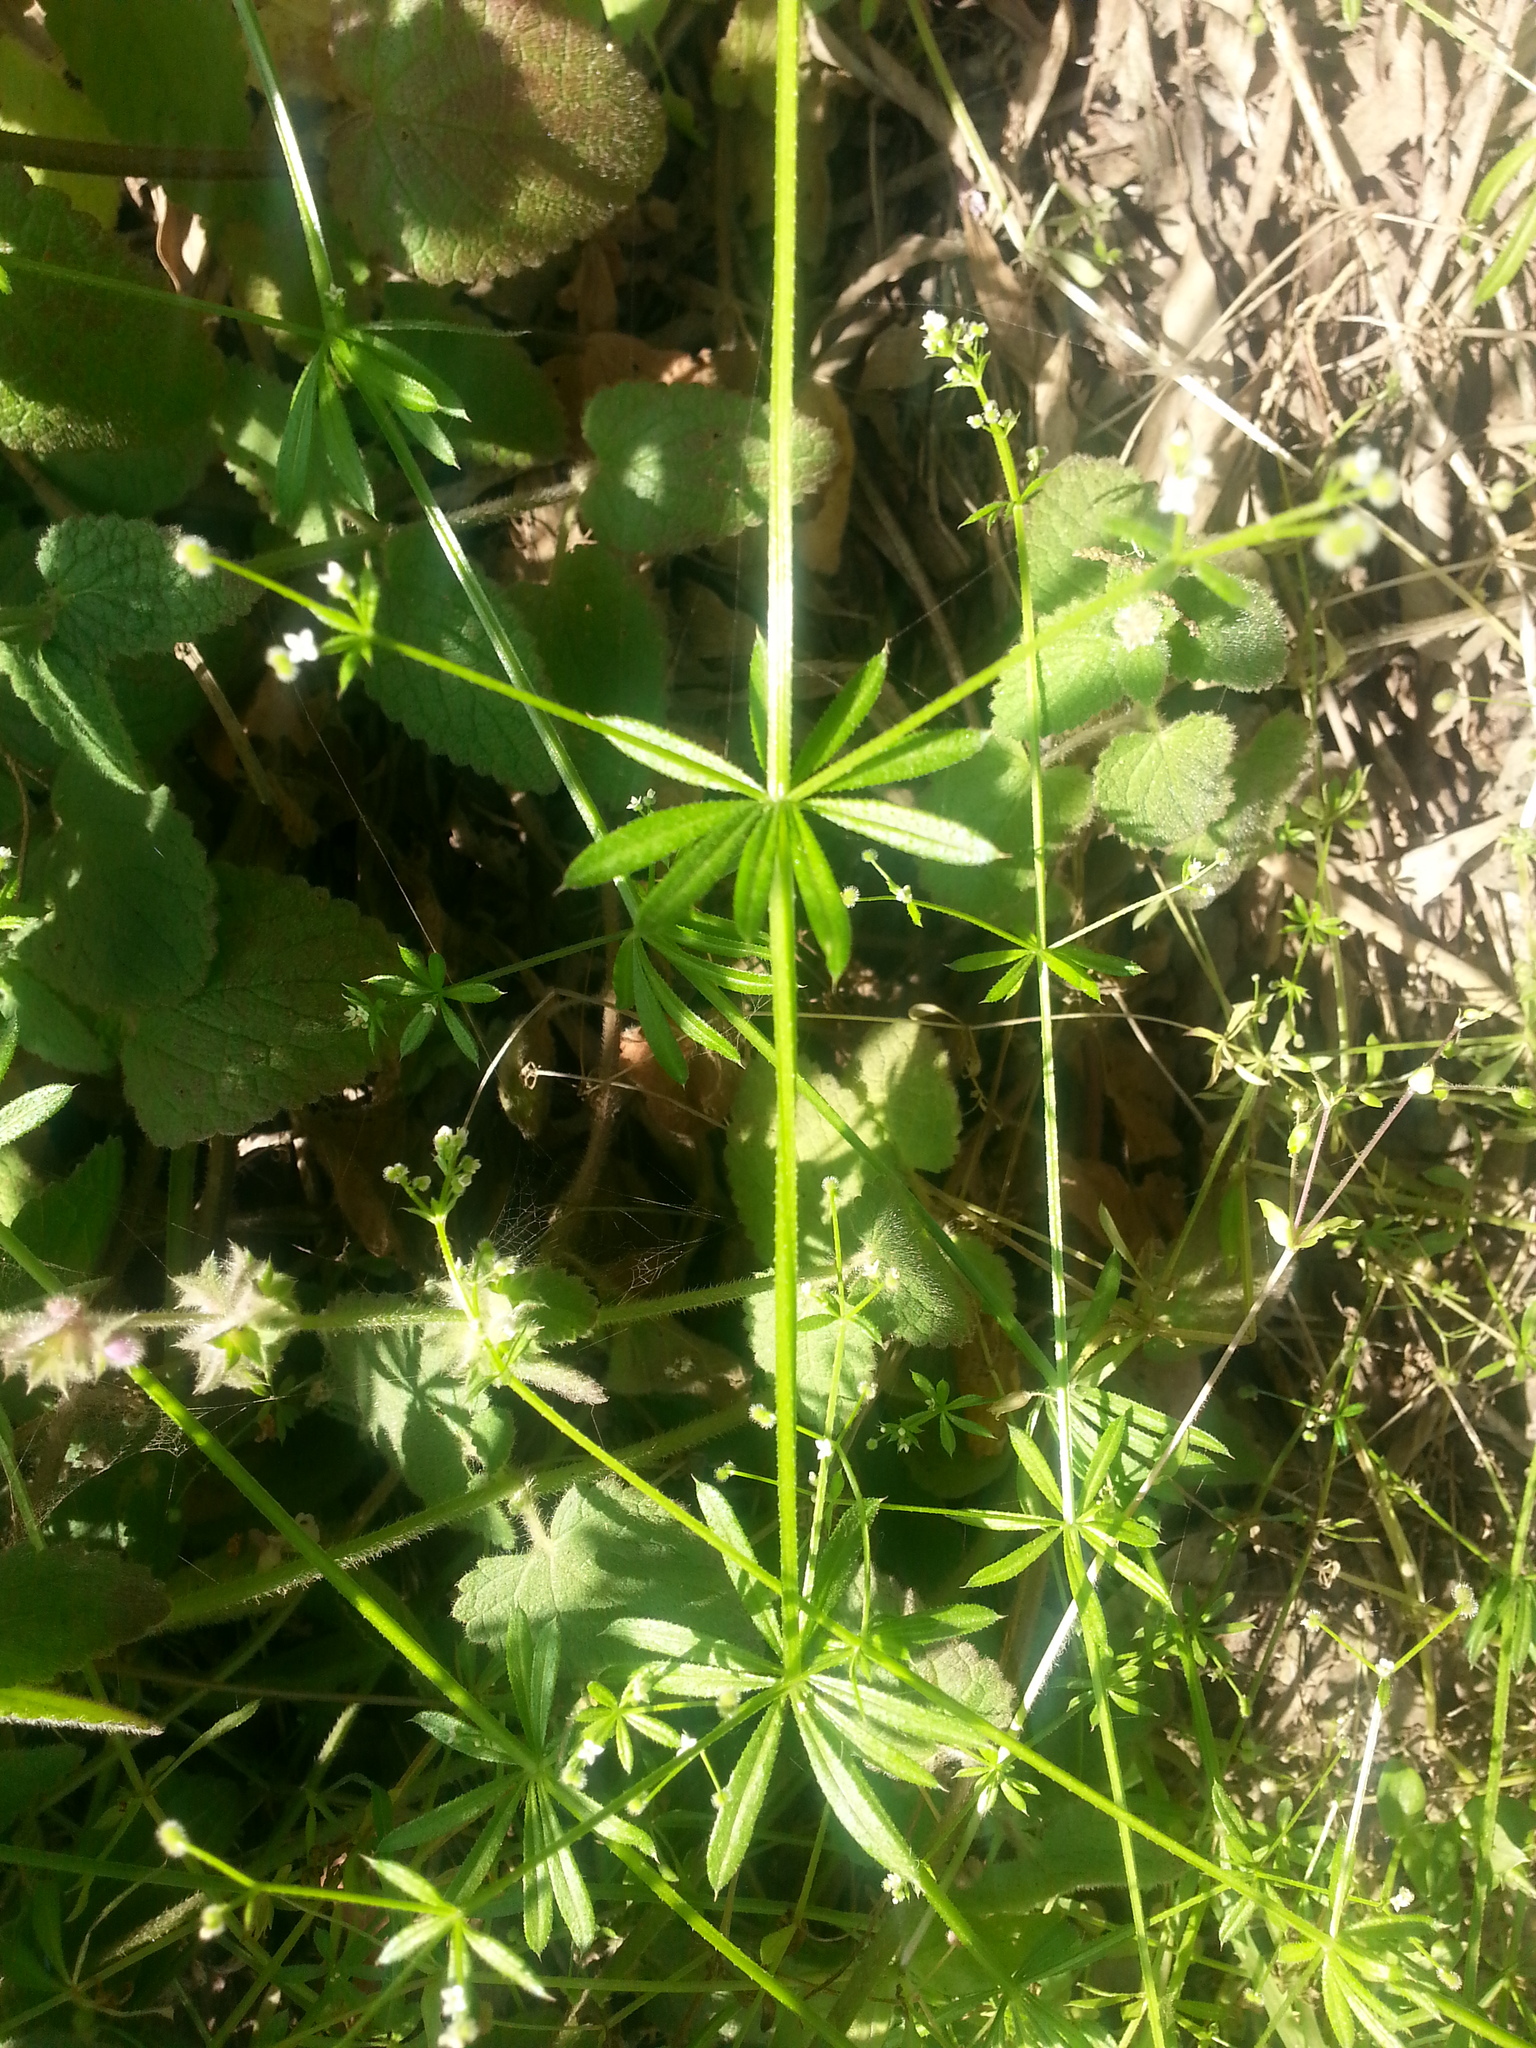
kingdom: Plantae
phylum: Tracheophyta
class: Magnoliopsida
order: Gentianales
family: Rubiaceae
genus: Galium
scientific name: Galium aparine
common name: Cleavers
